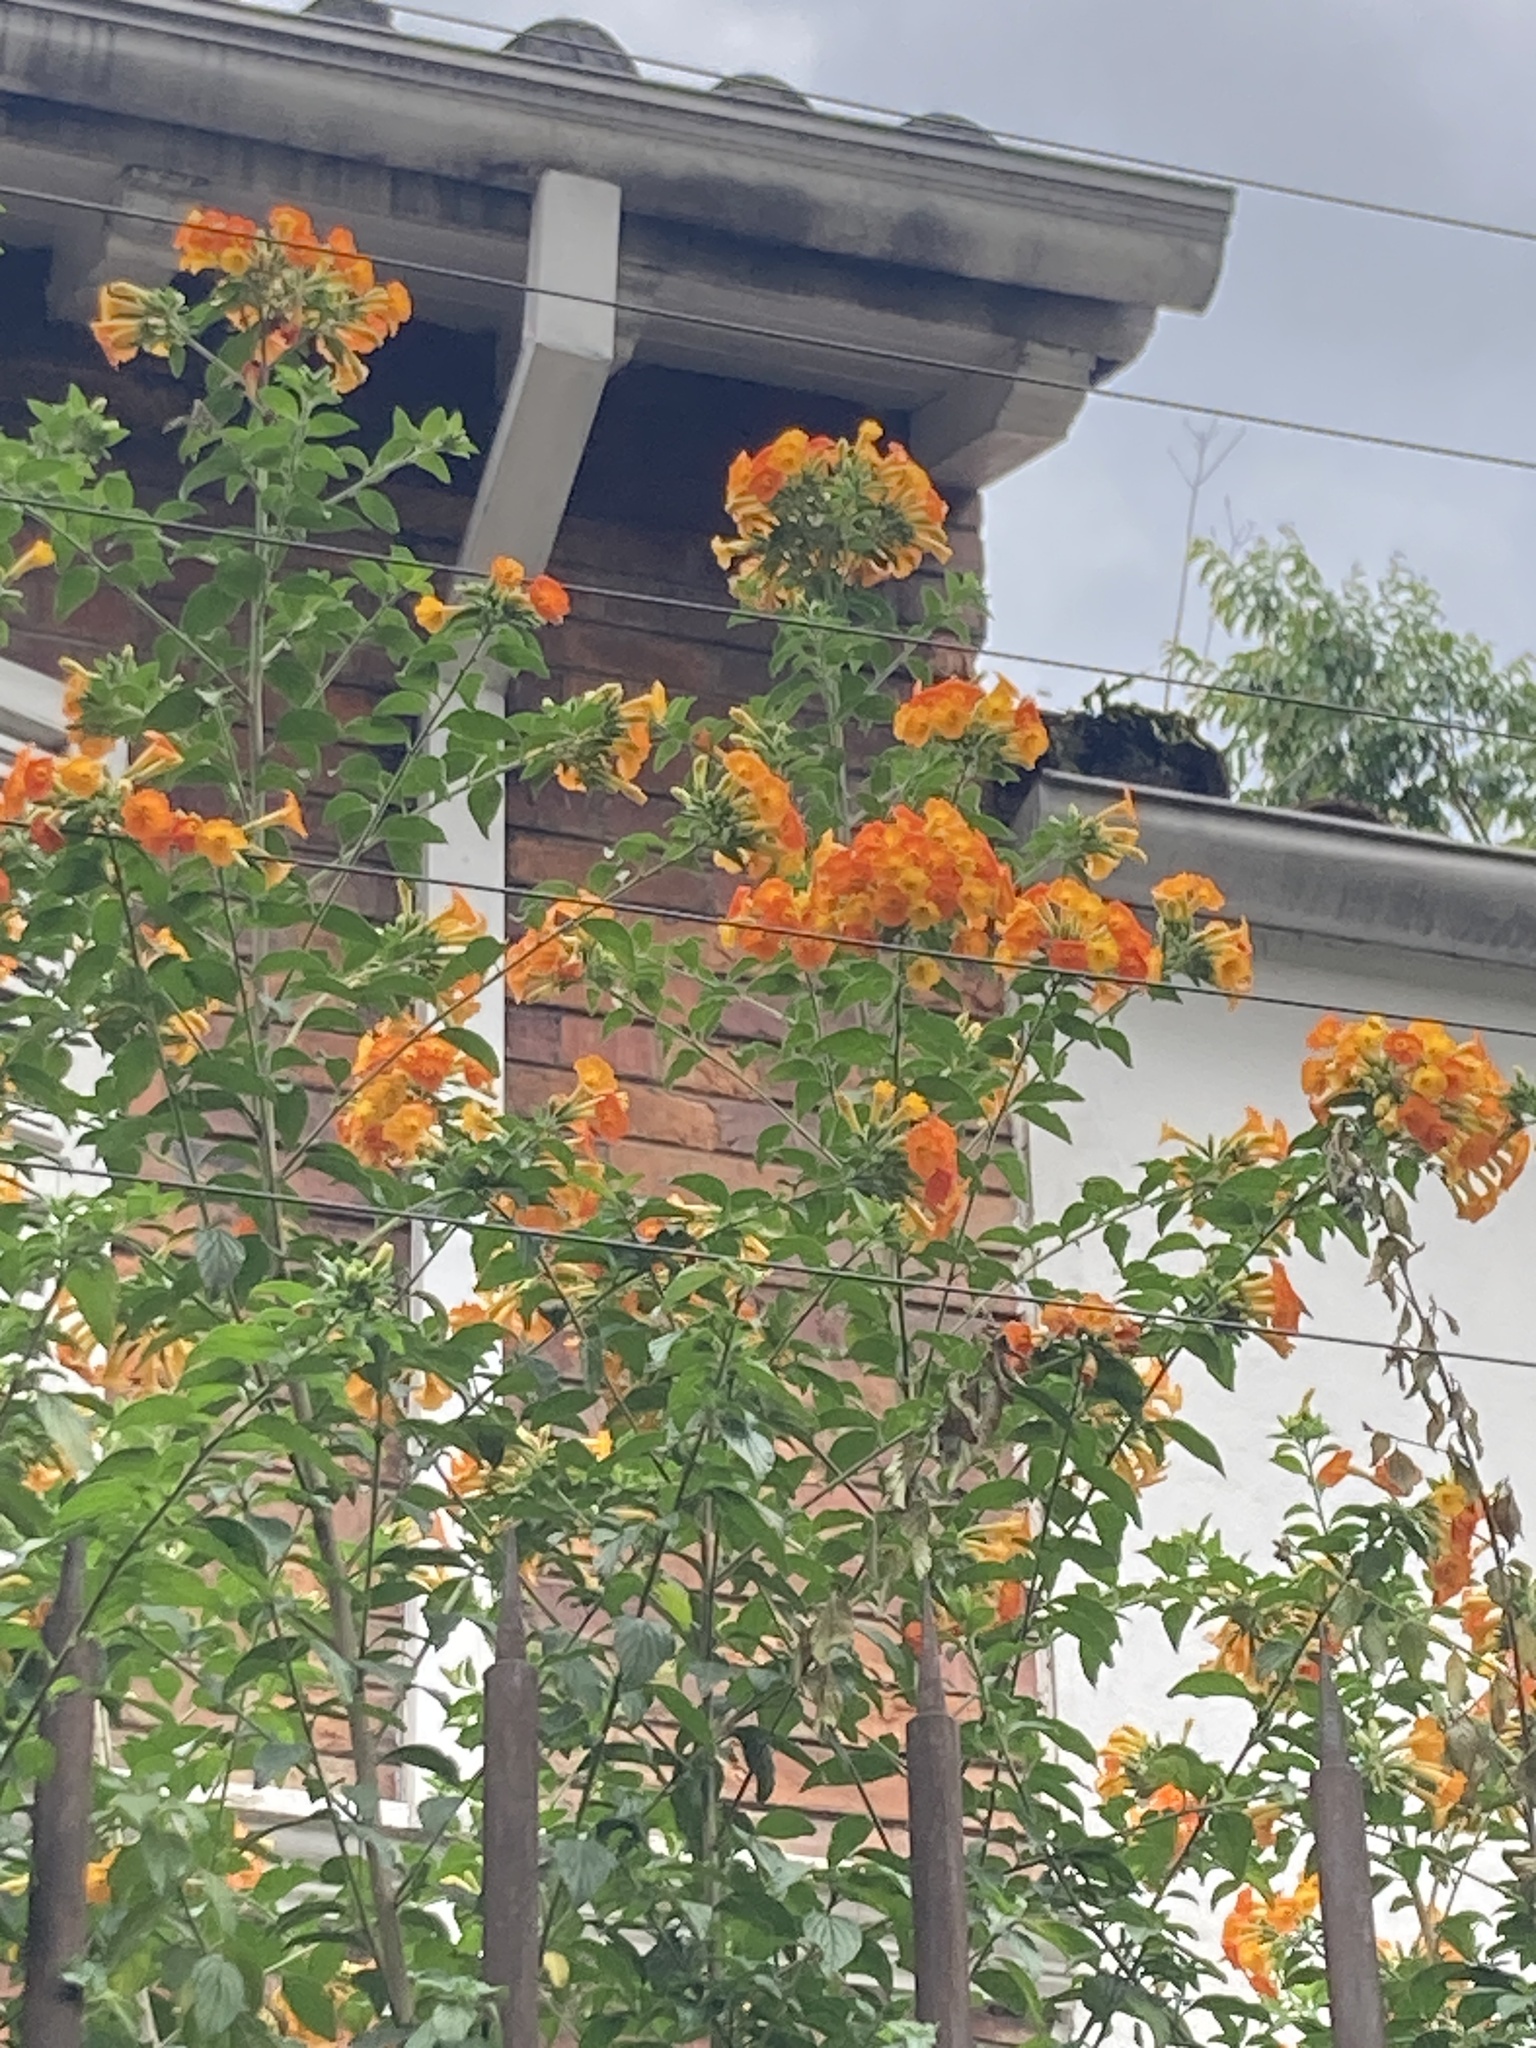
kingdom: Plantae
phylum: Tracheophyta
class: Magnoliopsida
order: Solanales
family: Solanaceae
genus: Streptosolen
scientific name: Streptosolen jamesonii
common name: Marmalade bush
